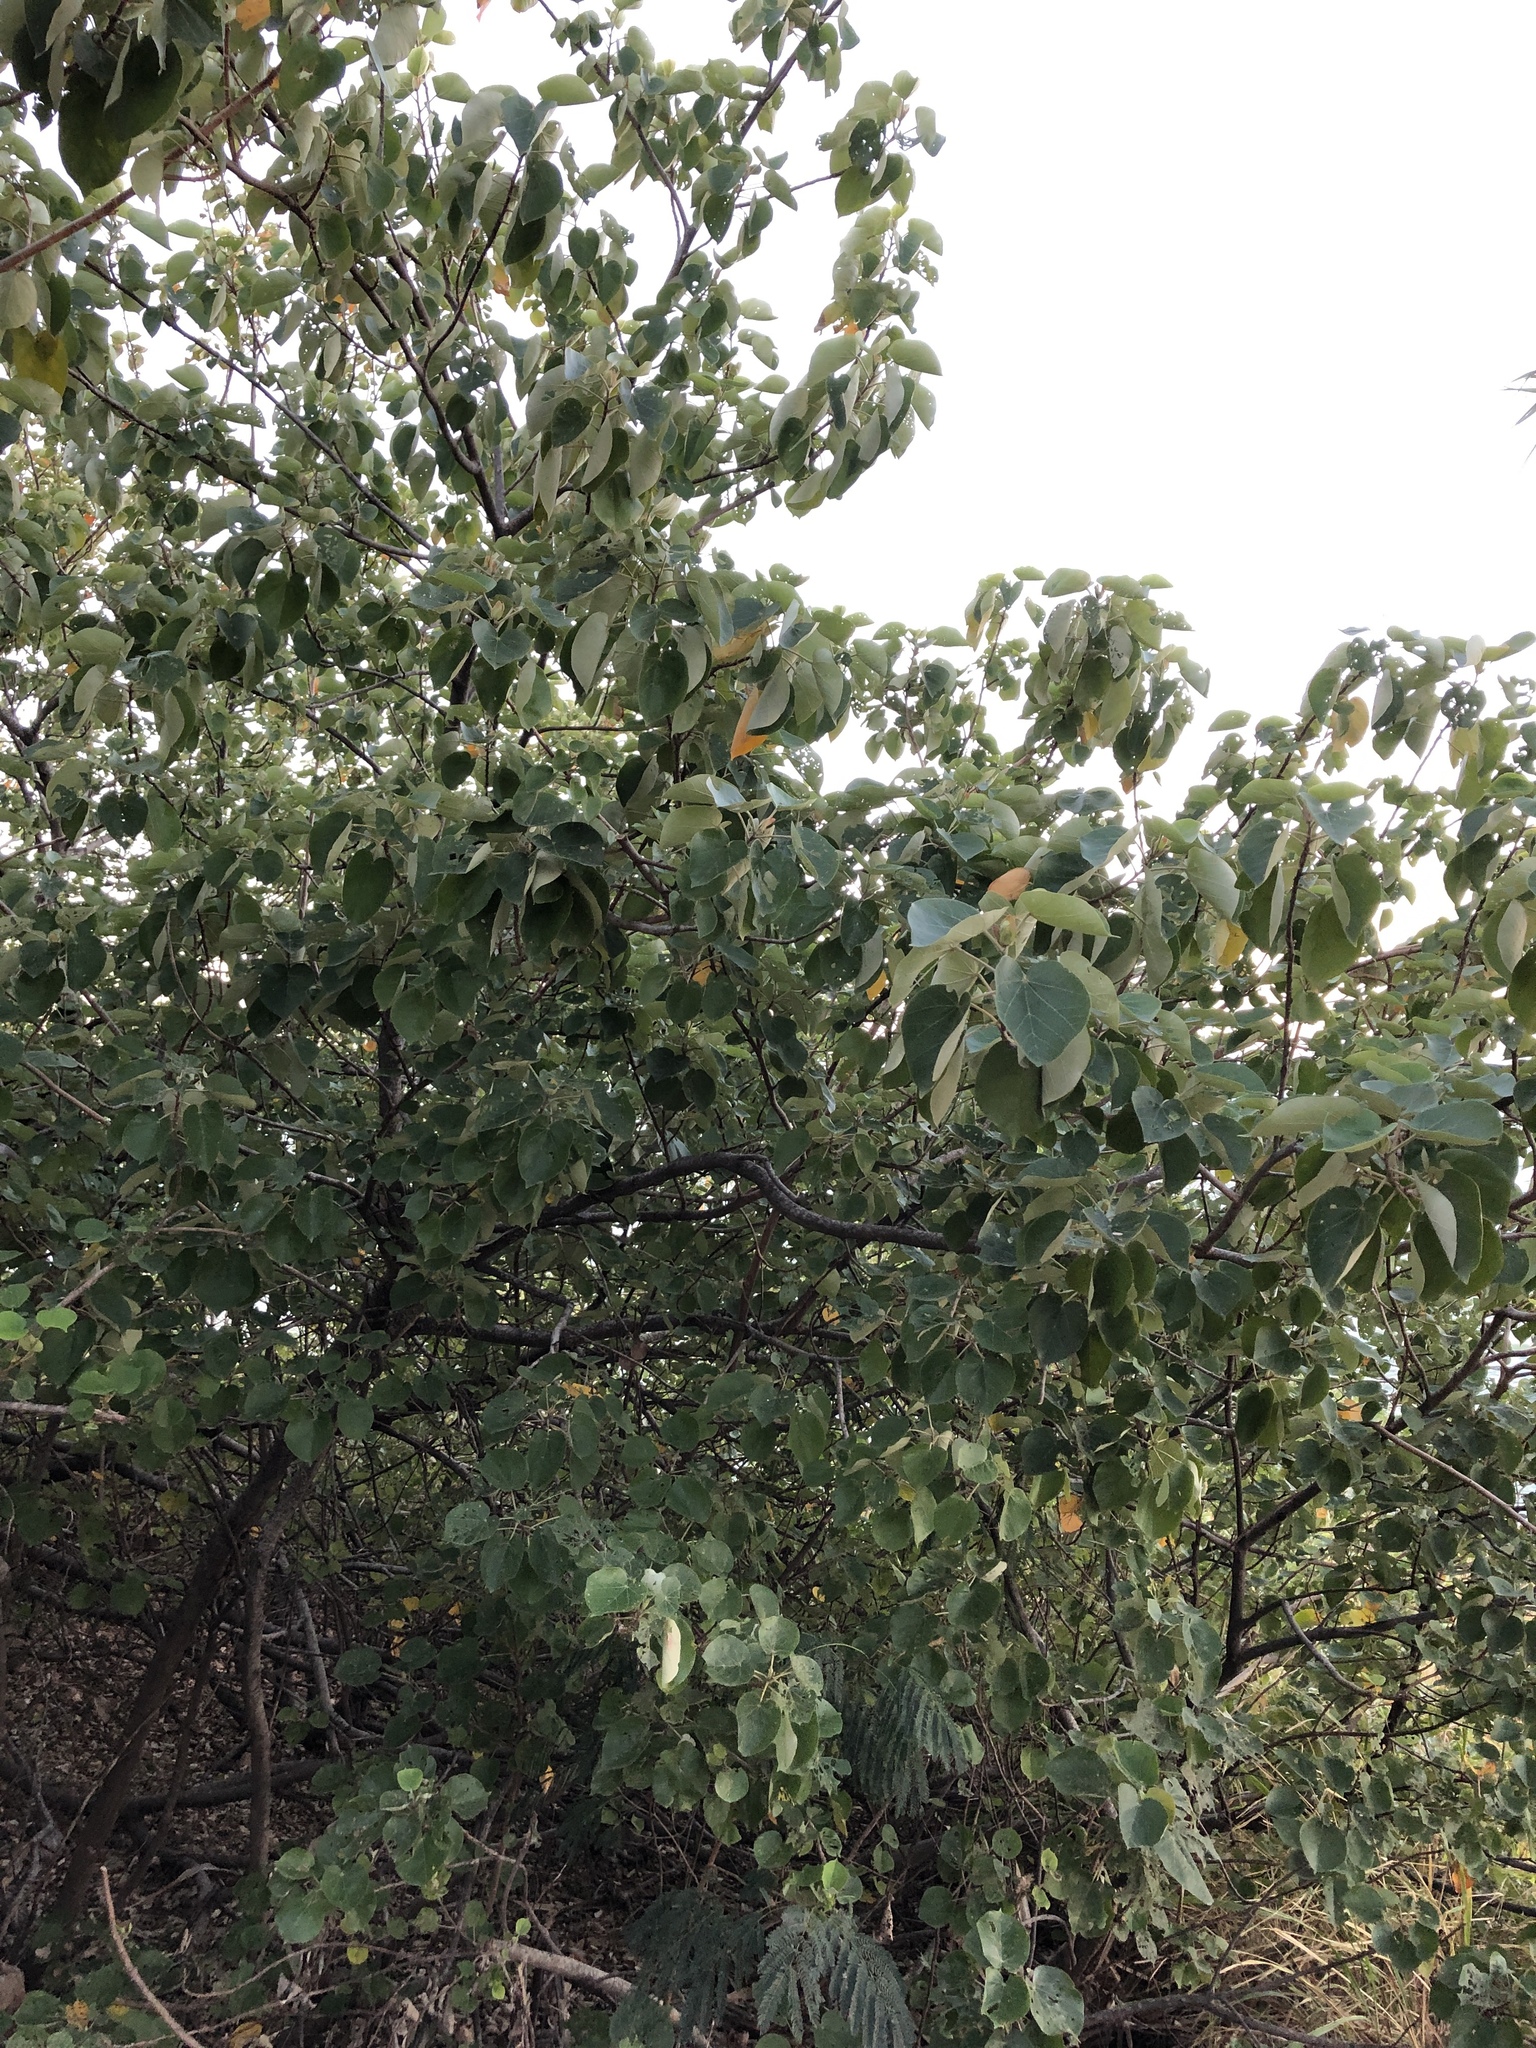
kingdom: Plantae
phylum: Tracheophyta
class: Magnoliopsida
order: Malvales
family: Malvaceae
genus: Talipariti
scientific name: Talipariti tiliaceum
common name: Sea hibiscus
